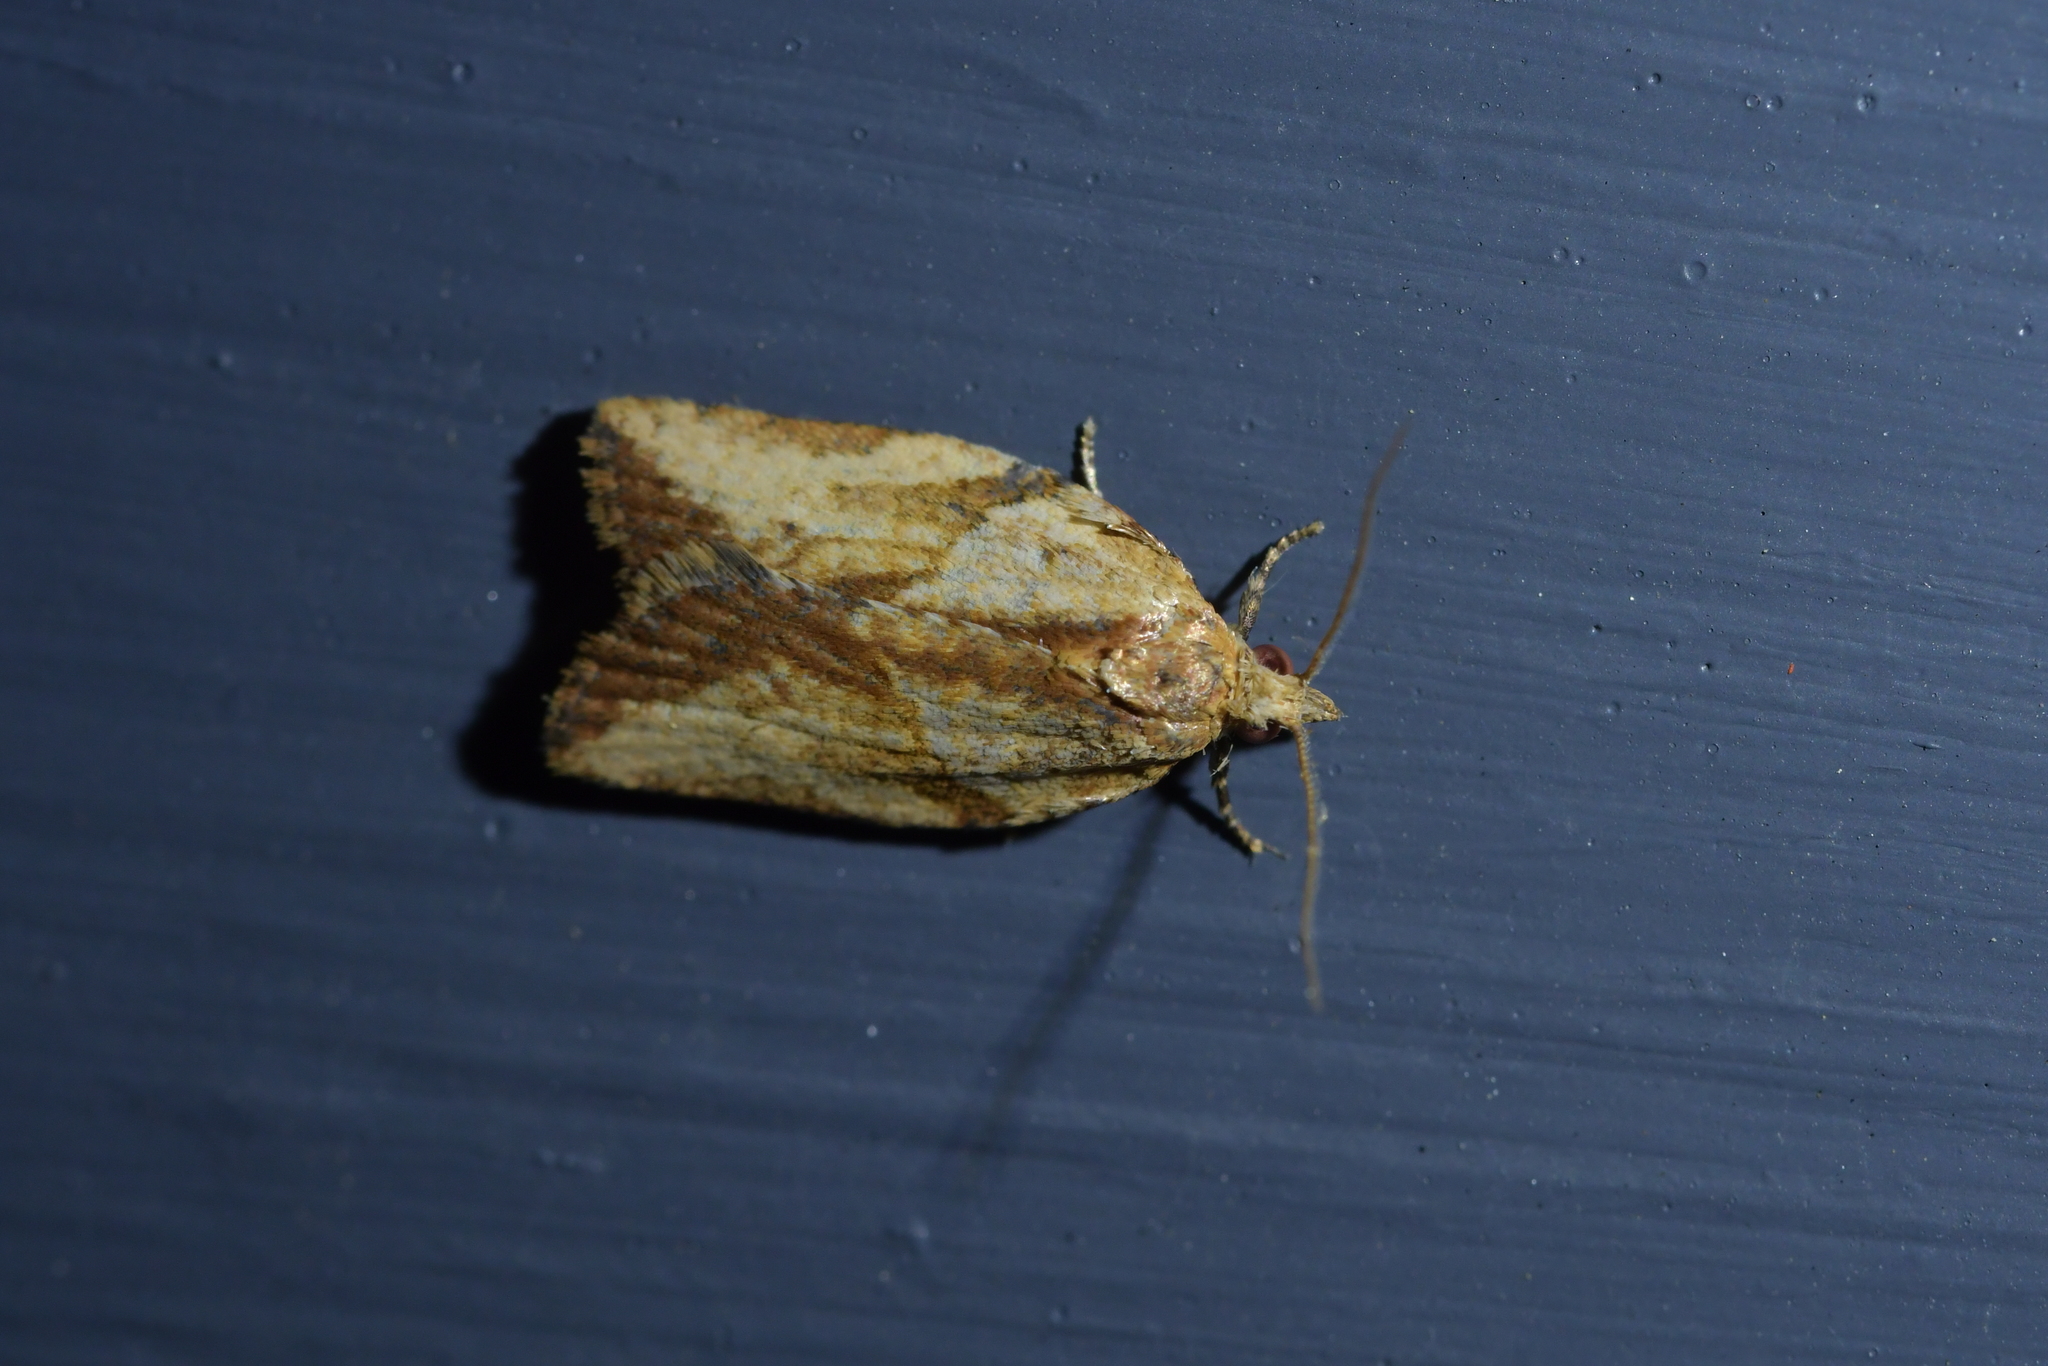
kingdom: Animalia
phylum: Arthropoda
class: Insecta
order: Lepidoptera
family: Tortricidae
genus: Epiphyas
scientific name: Epiphyas postvittana
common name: Light brown apple moth
